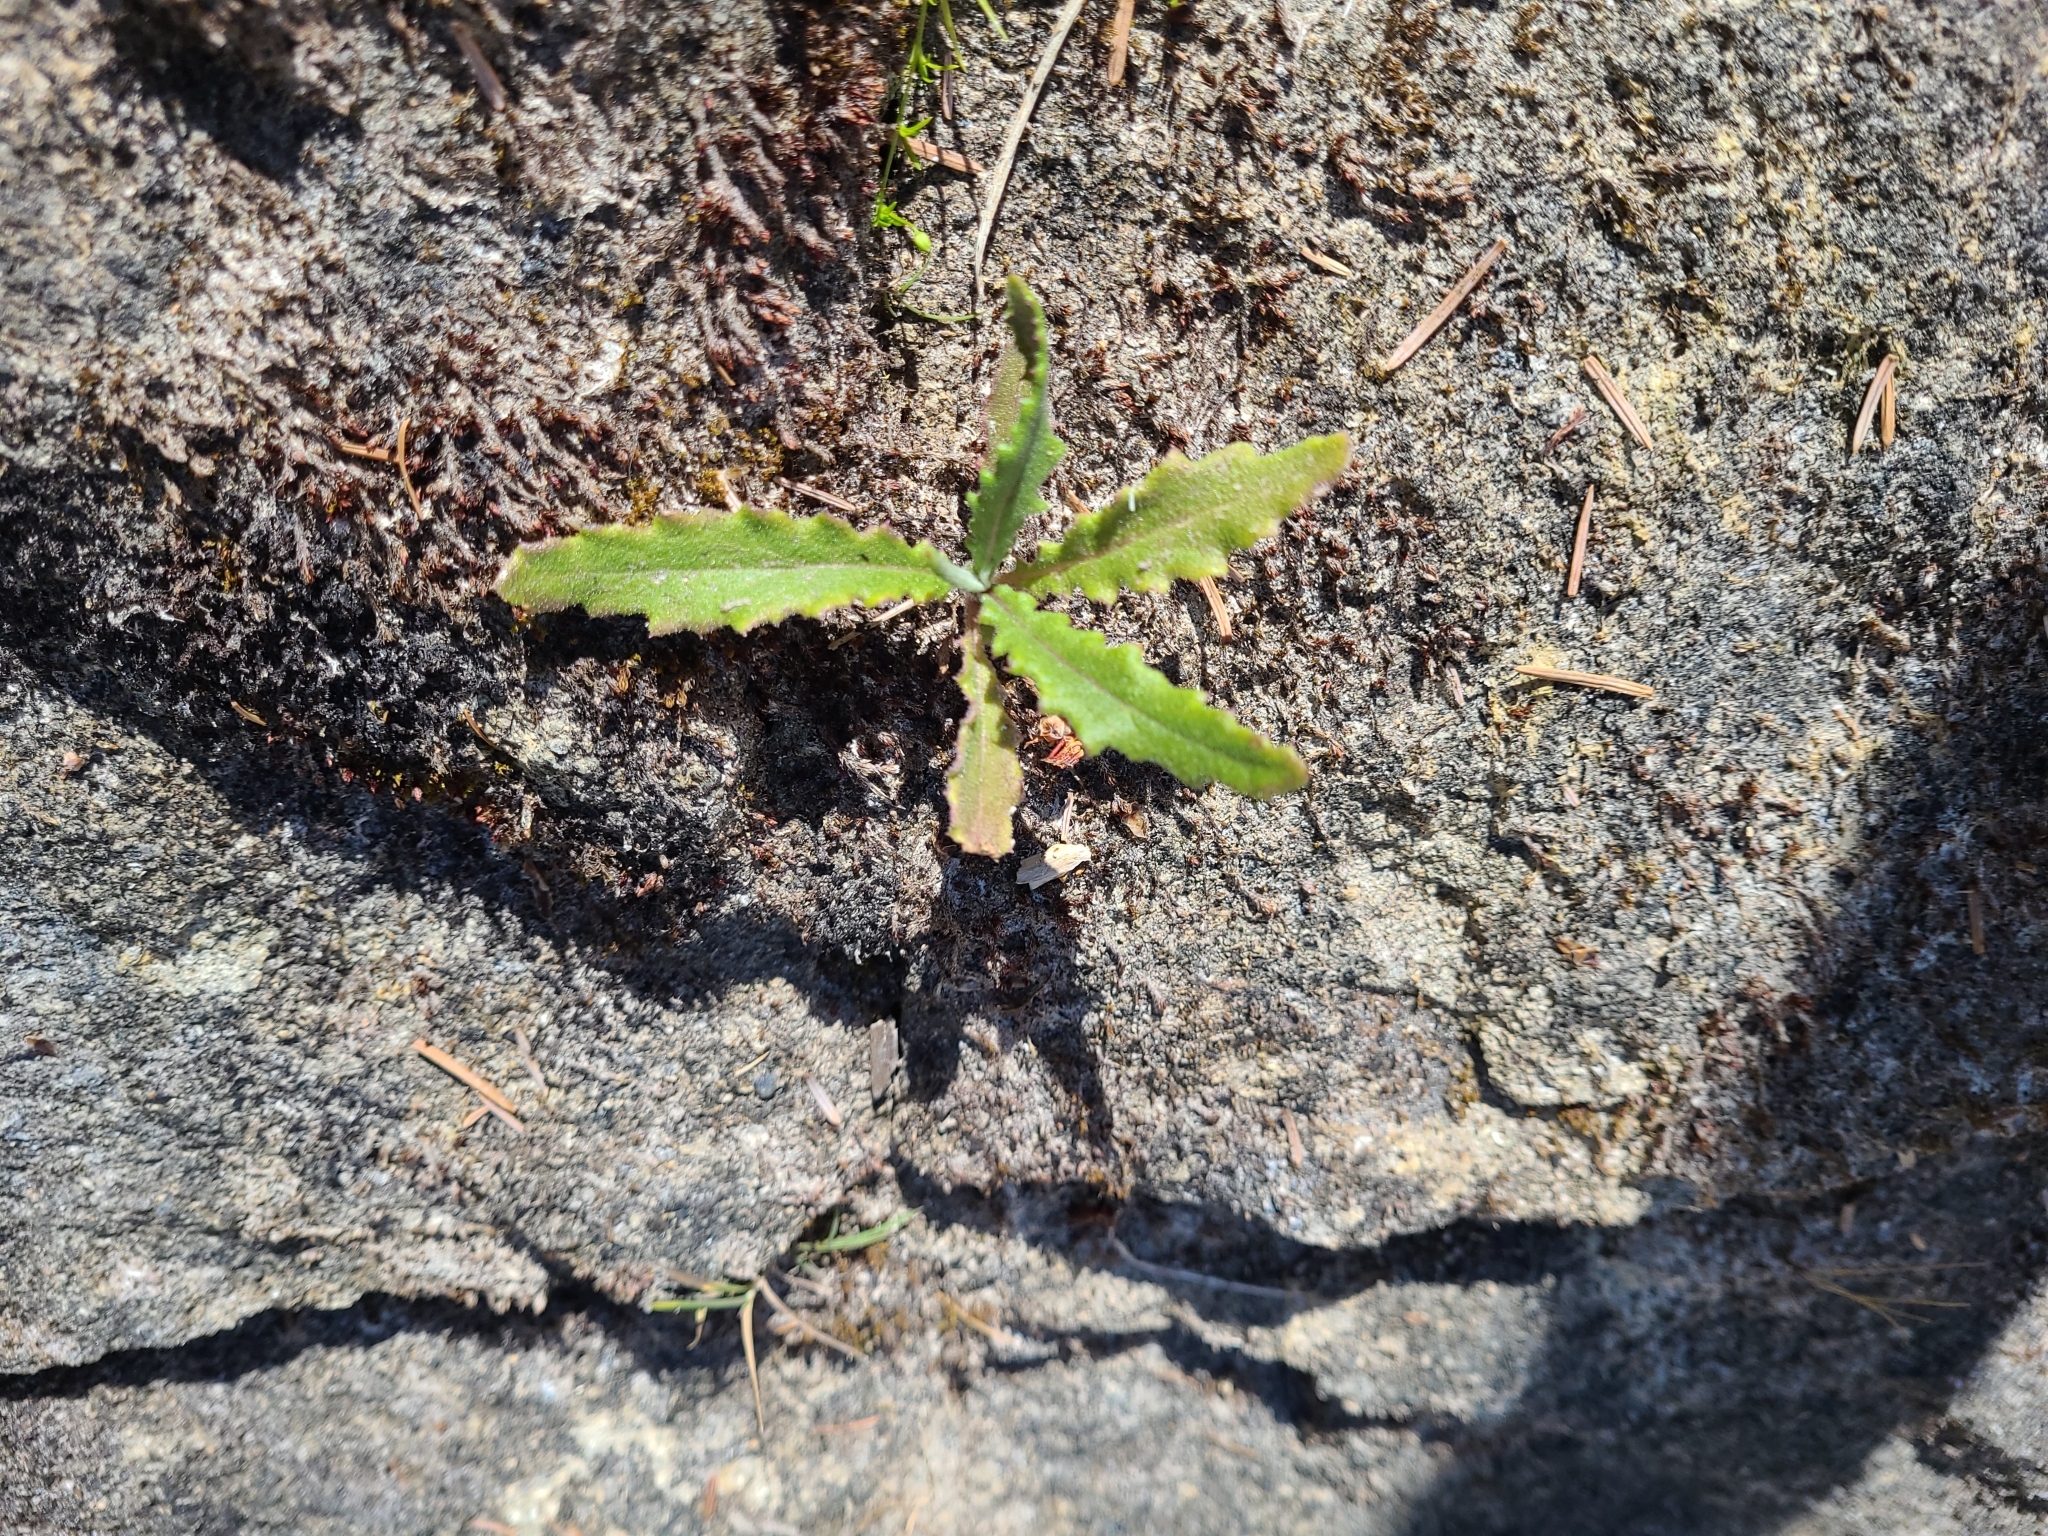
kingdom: Plantae
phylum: Tracheophyta
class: Magnoliopsida
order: Asterales
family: Asteraceae
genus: Senecio
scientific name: Senecio minimus
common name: Toothed fireweed
